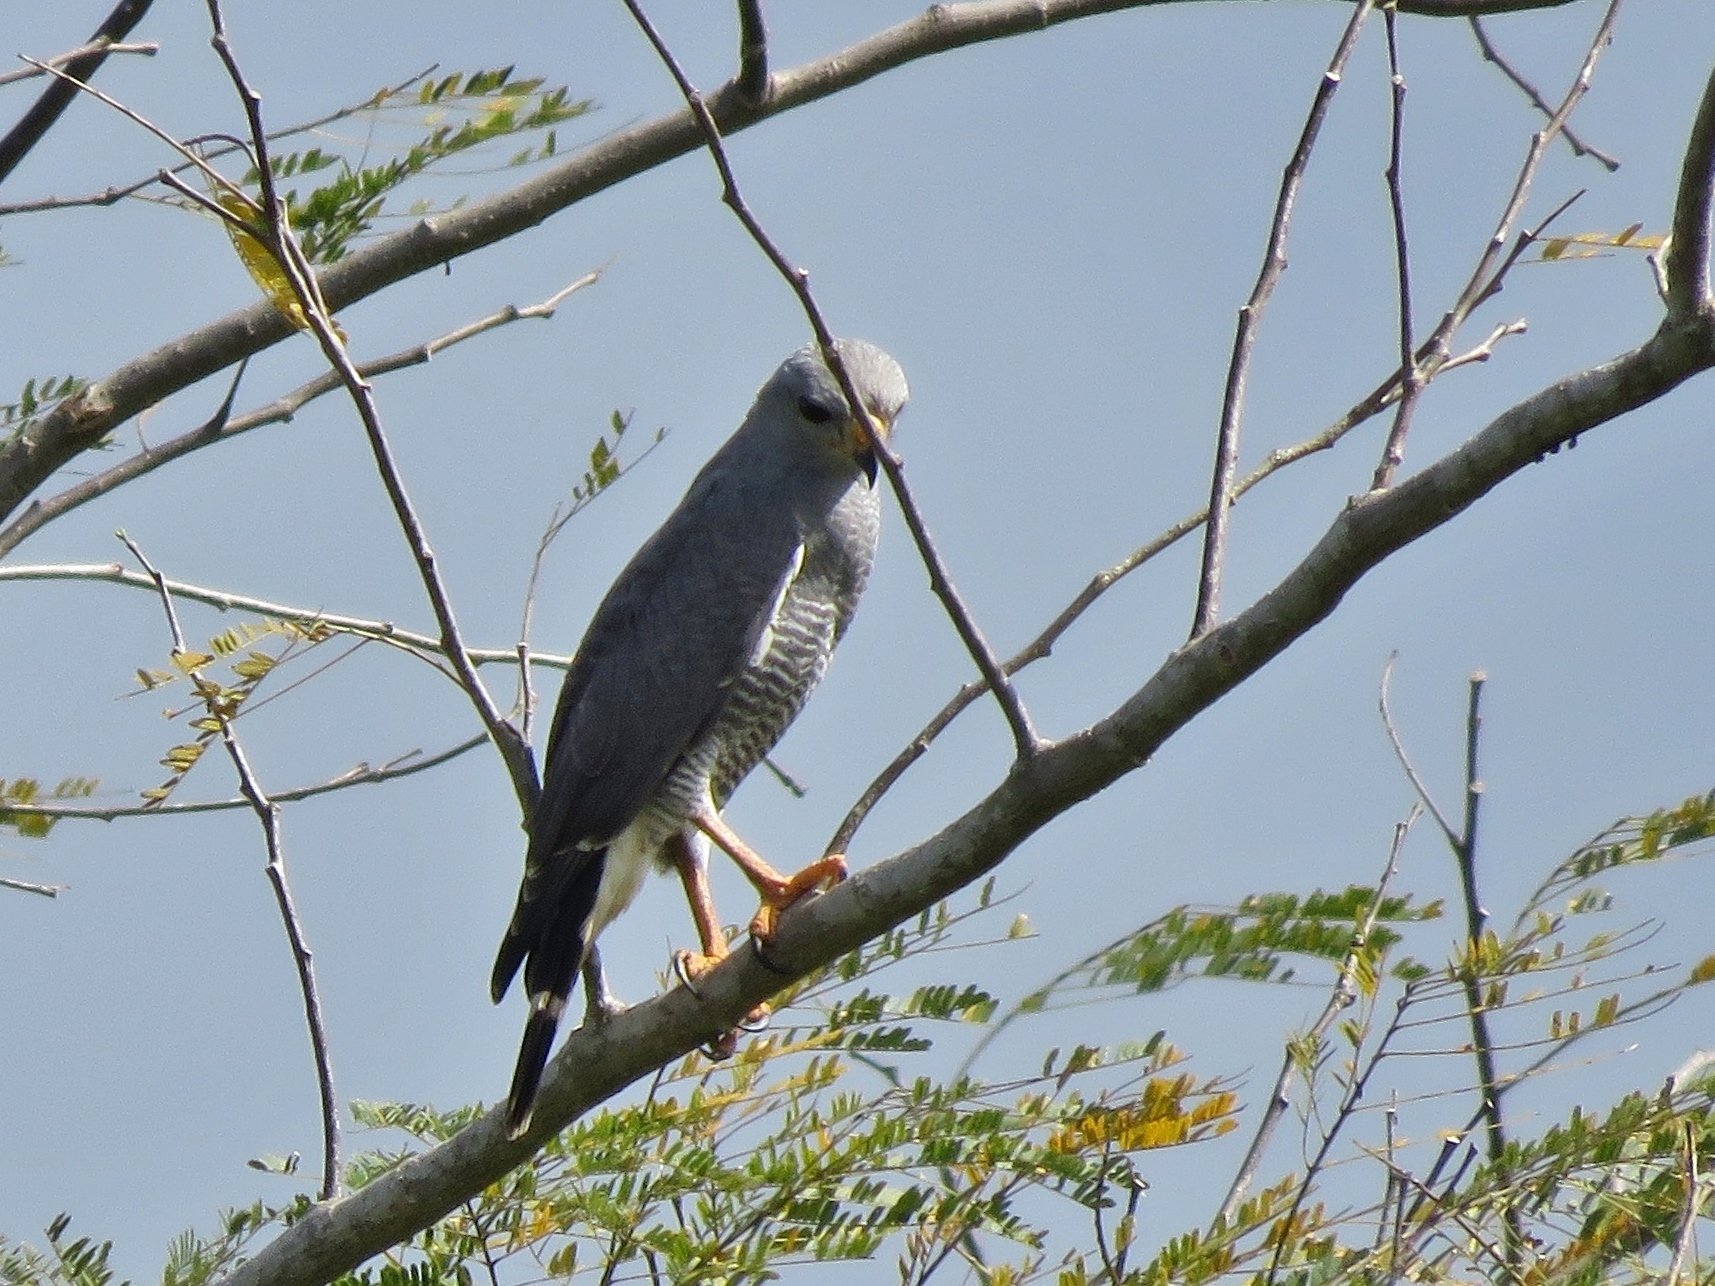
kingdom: Animalia
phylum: Chordata
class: Aves
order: Accipitriformes
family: Accipitridae
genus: Buteo
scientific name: Buteo nitidus
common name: Grey-lined hawk
